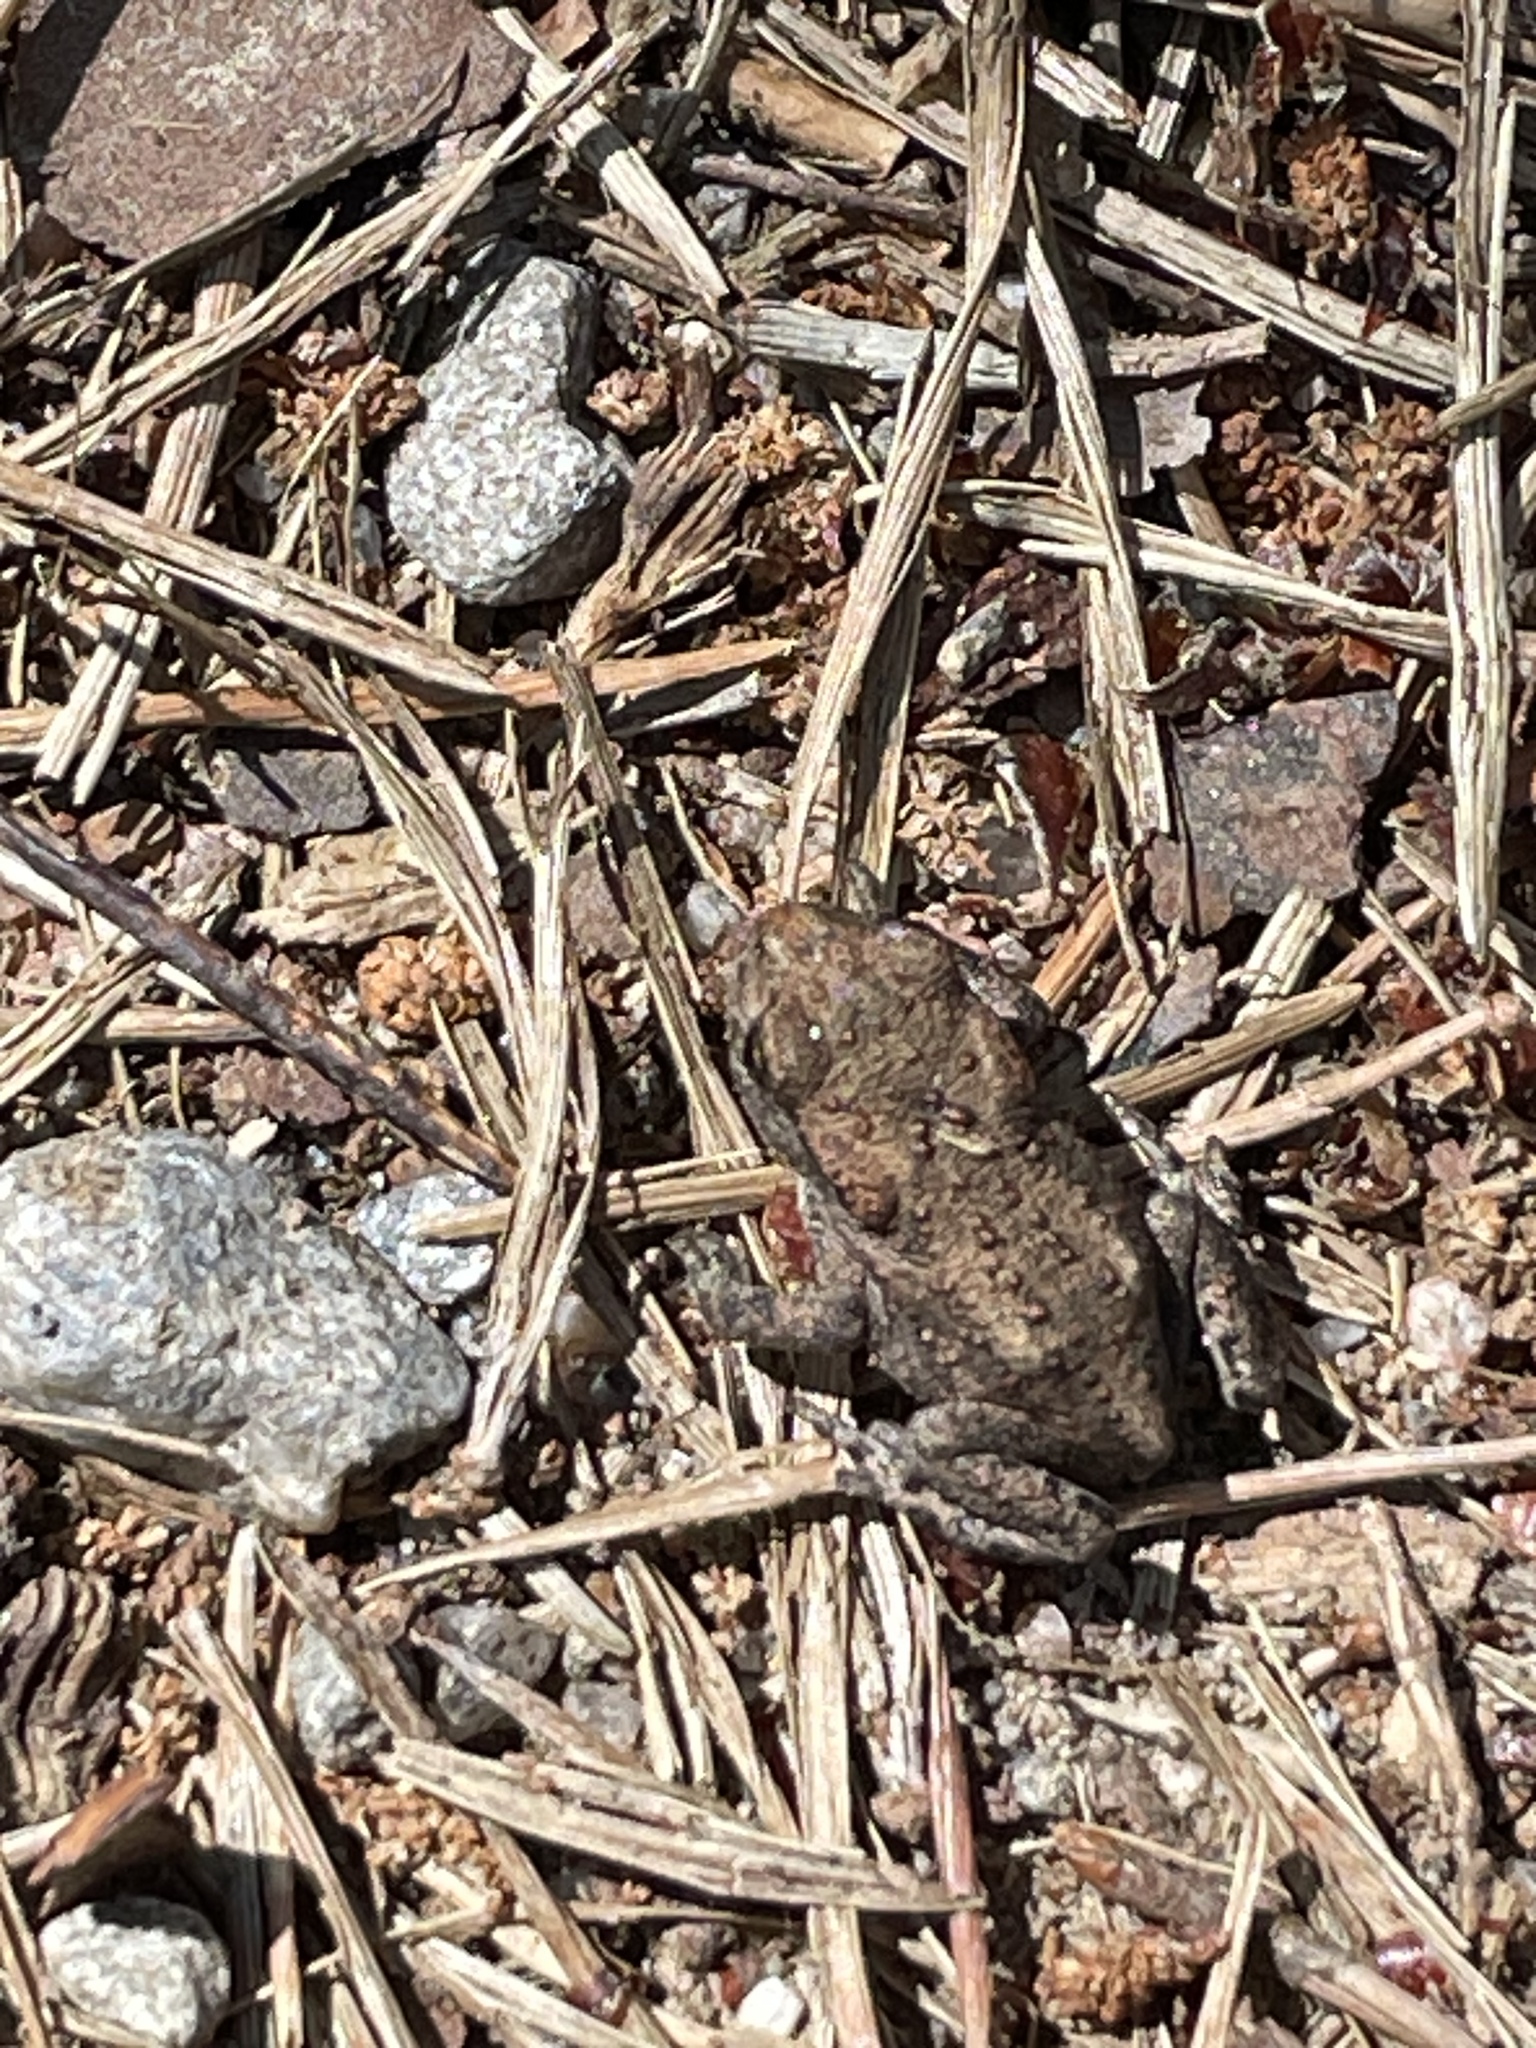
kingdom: Animalia
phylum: Chordata
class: Amphibia
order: Anura
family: Bufonidae
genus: Bufo
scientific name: Bufo bufo
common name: Common toad
